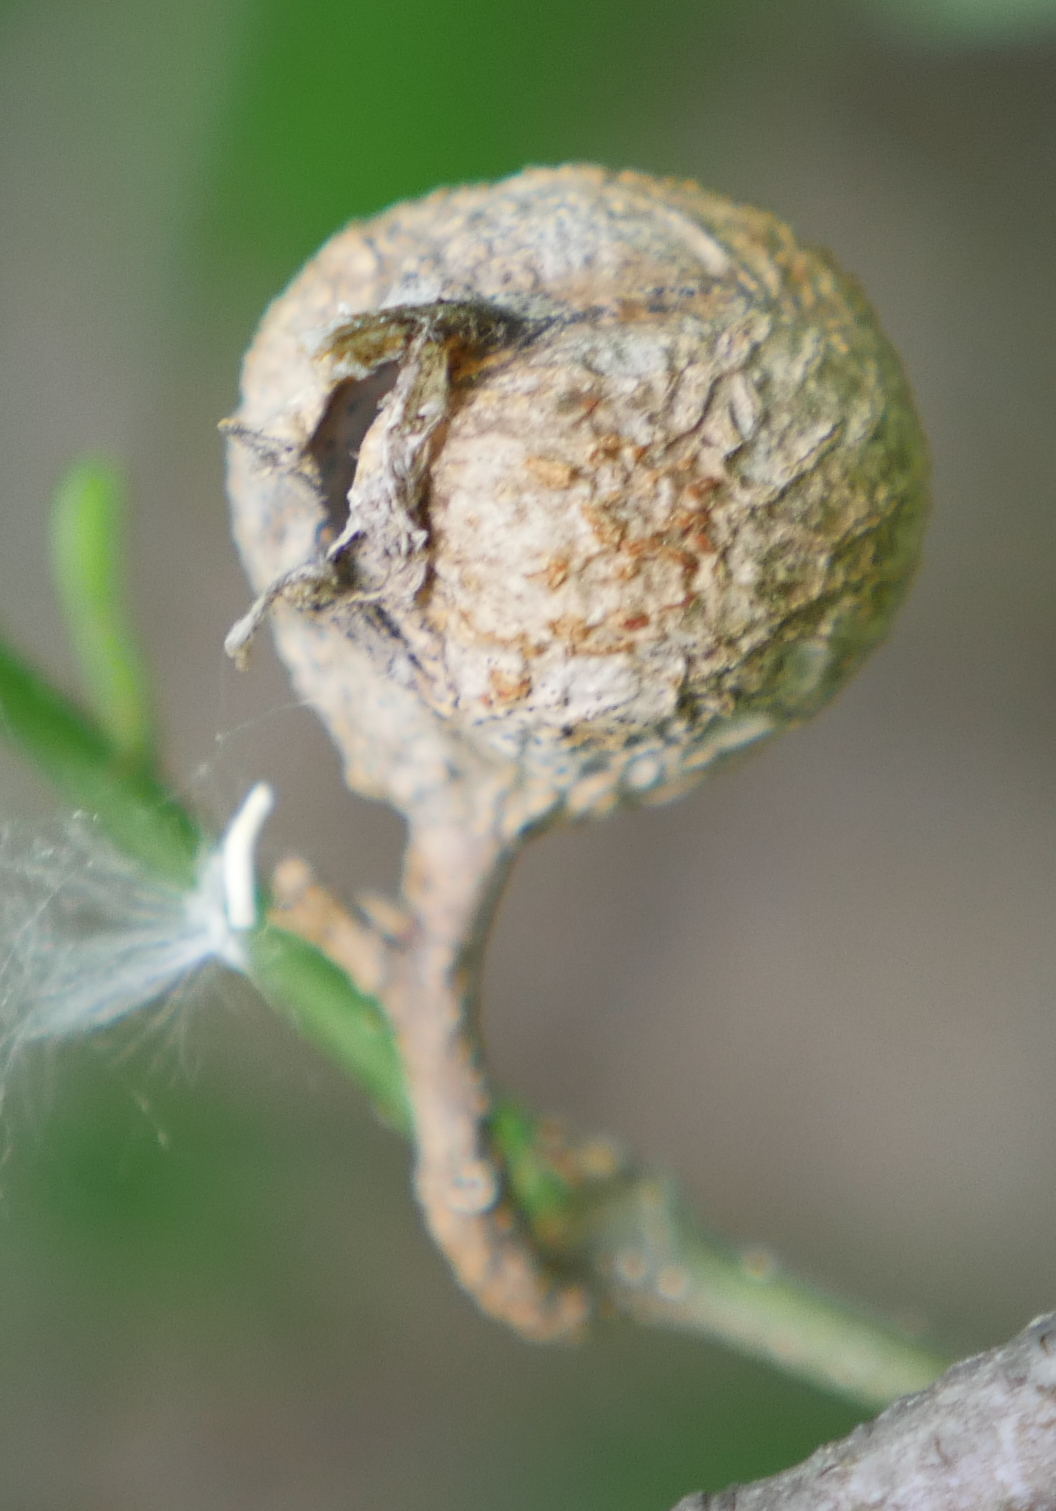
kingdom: Animalia
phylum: Arthropoda
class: Insecta
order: Hemiptera
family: Aphalaridae
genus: Pachypsylla
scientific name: Pachypsylla venusta
